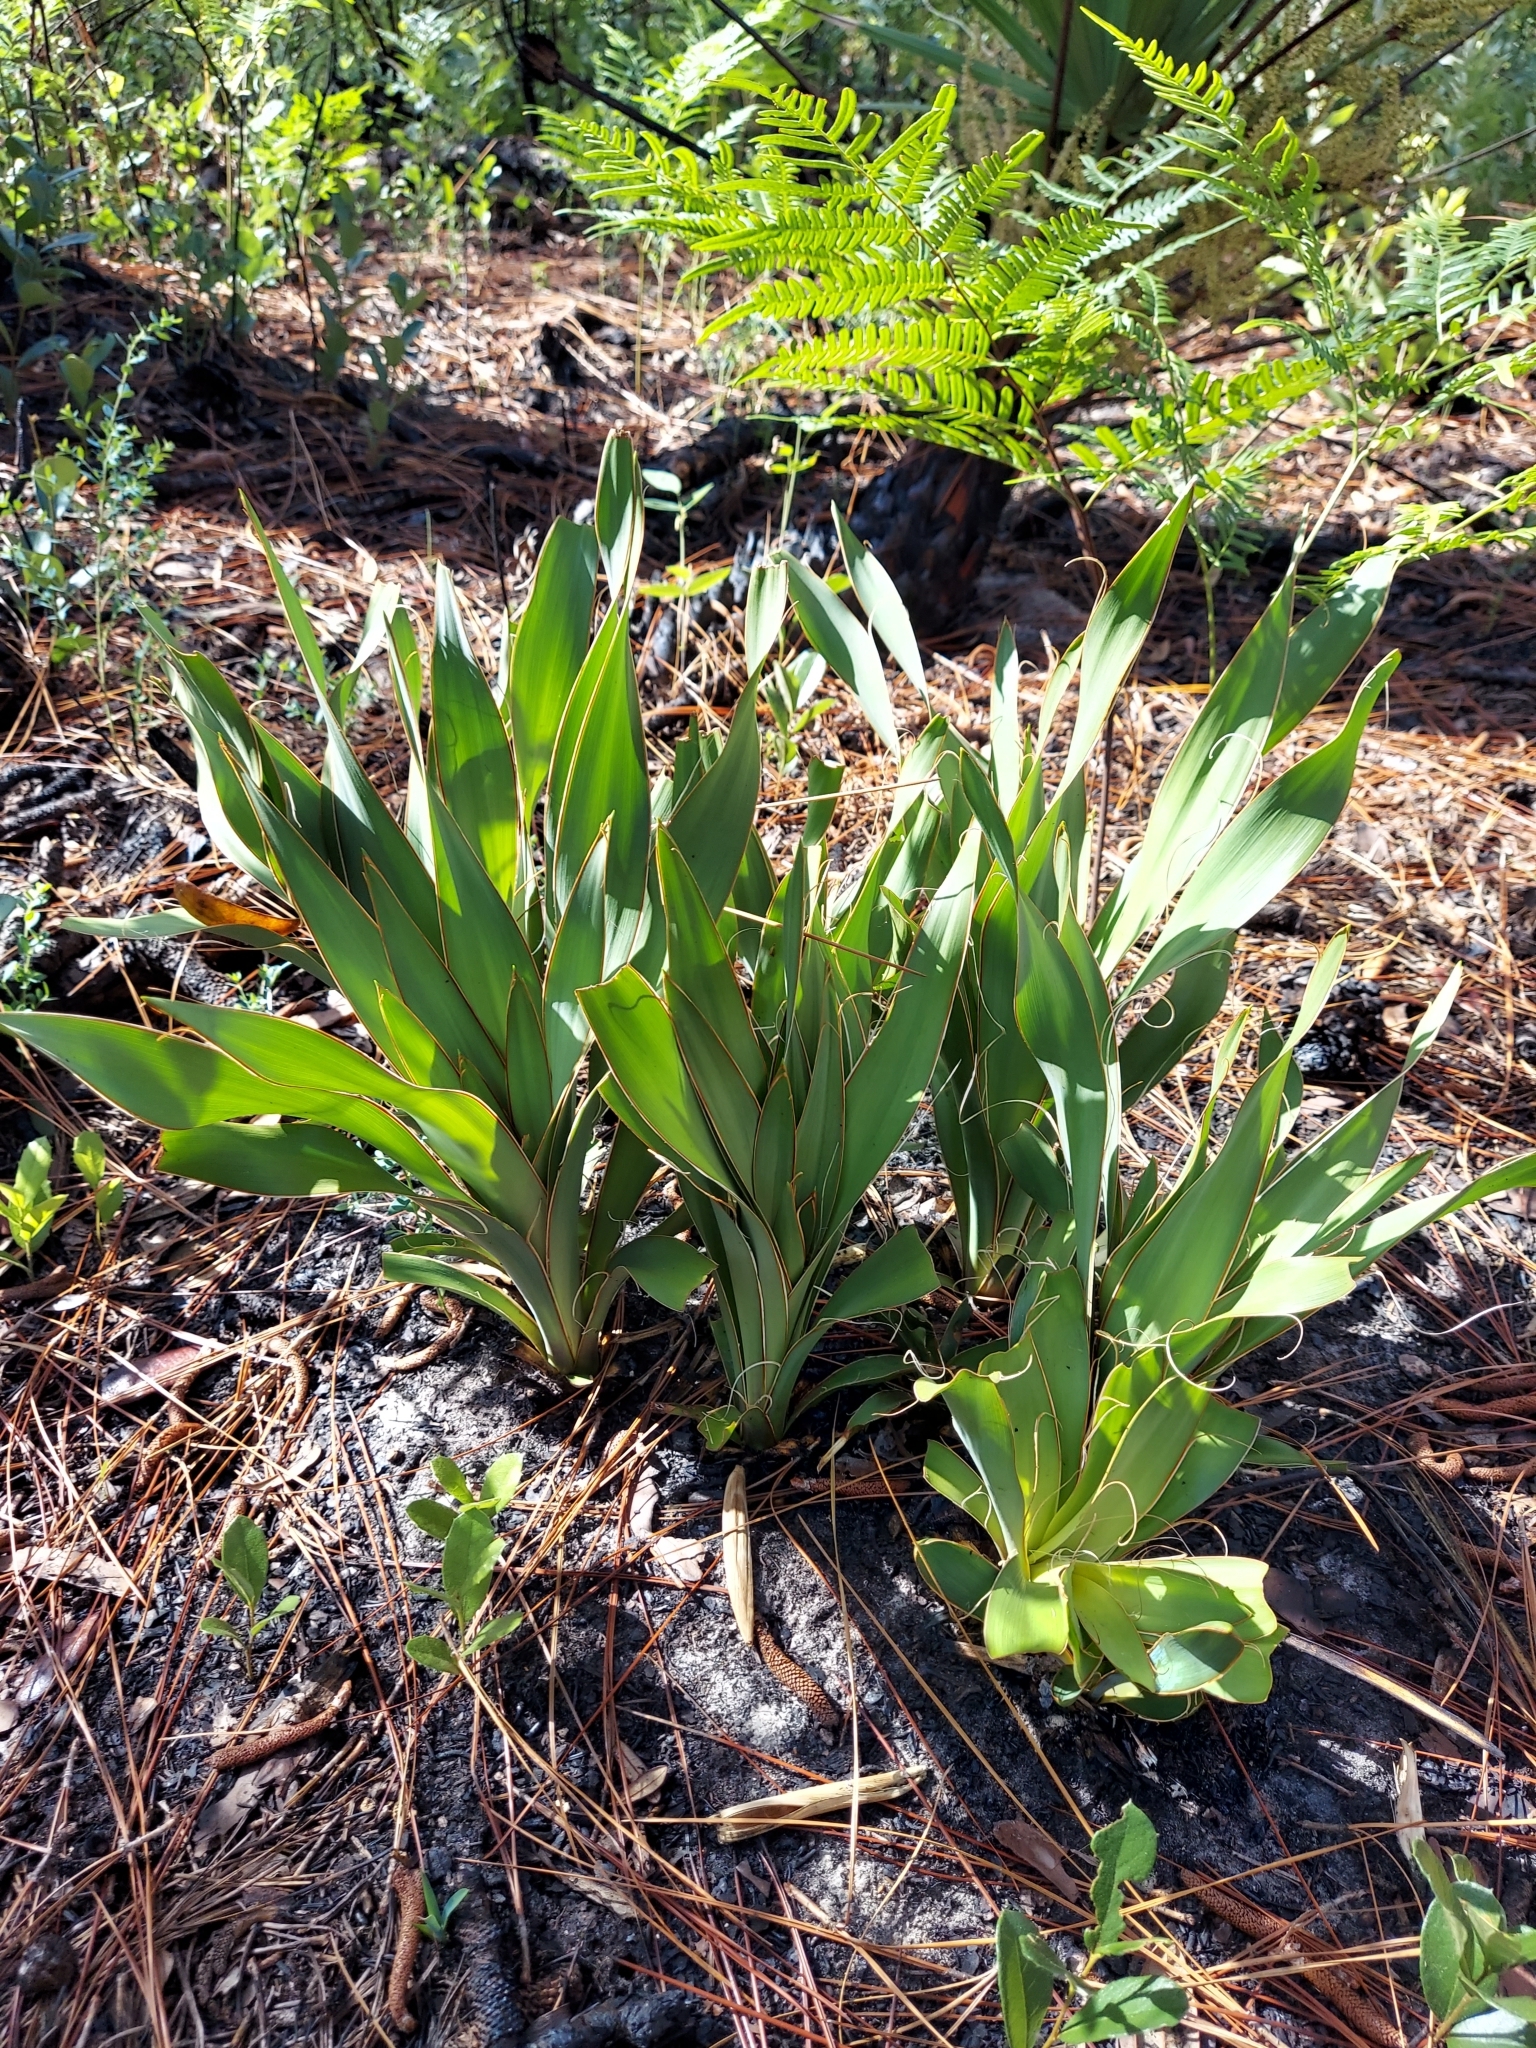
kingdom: Plantae
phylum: Tracheophyta
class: Liliopsida
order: Asparagales
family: Asparagaceae
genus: Yucca
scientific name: Yucca filamentosa
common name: Adam's-needle
